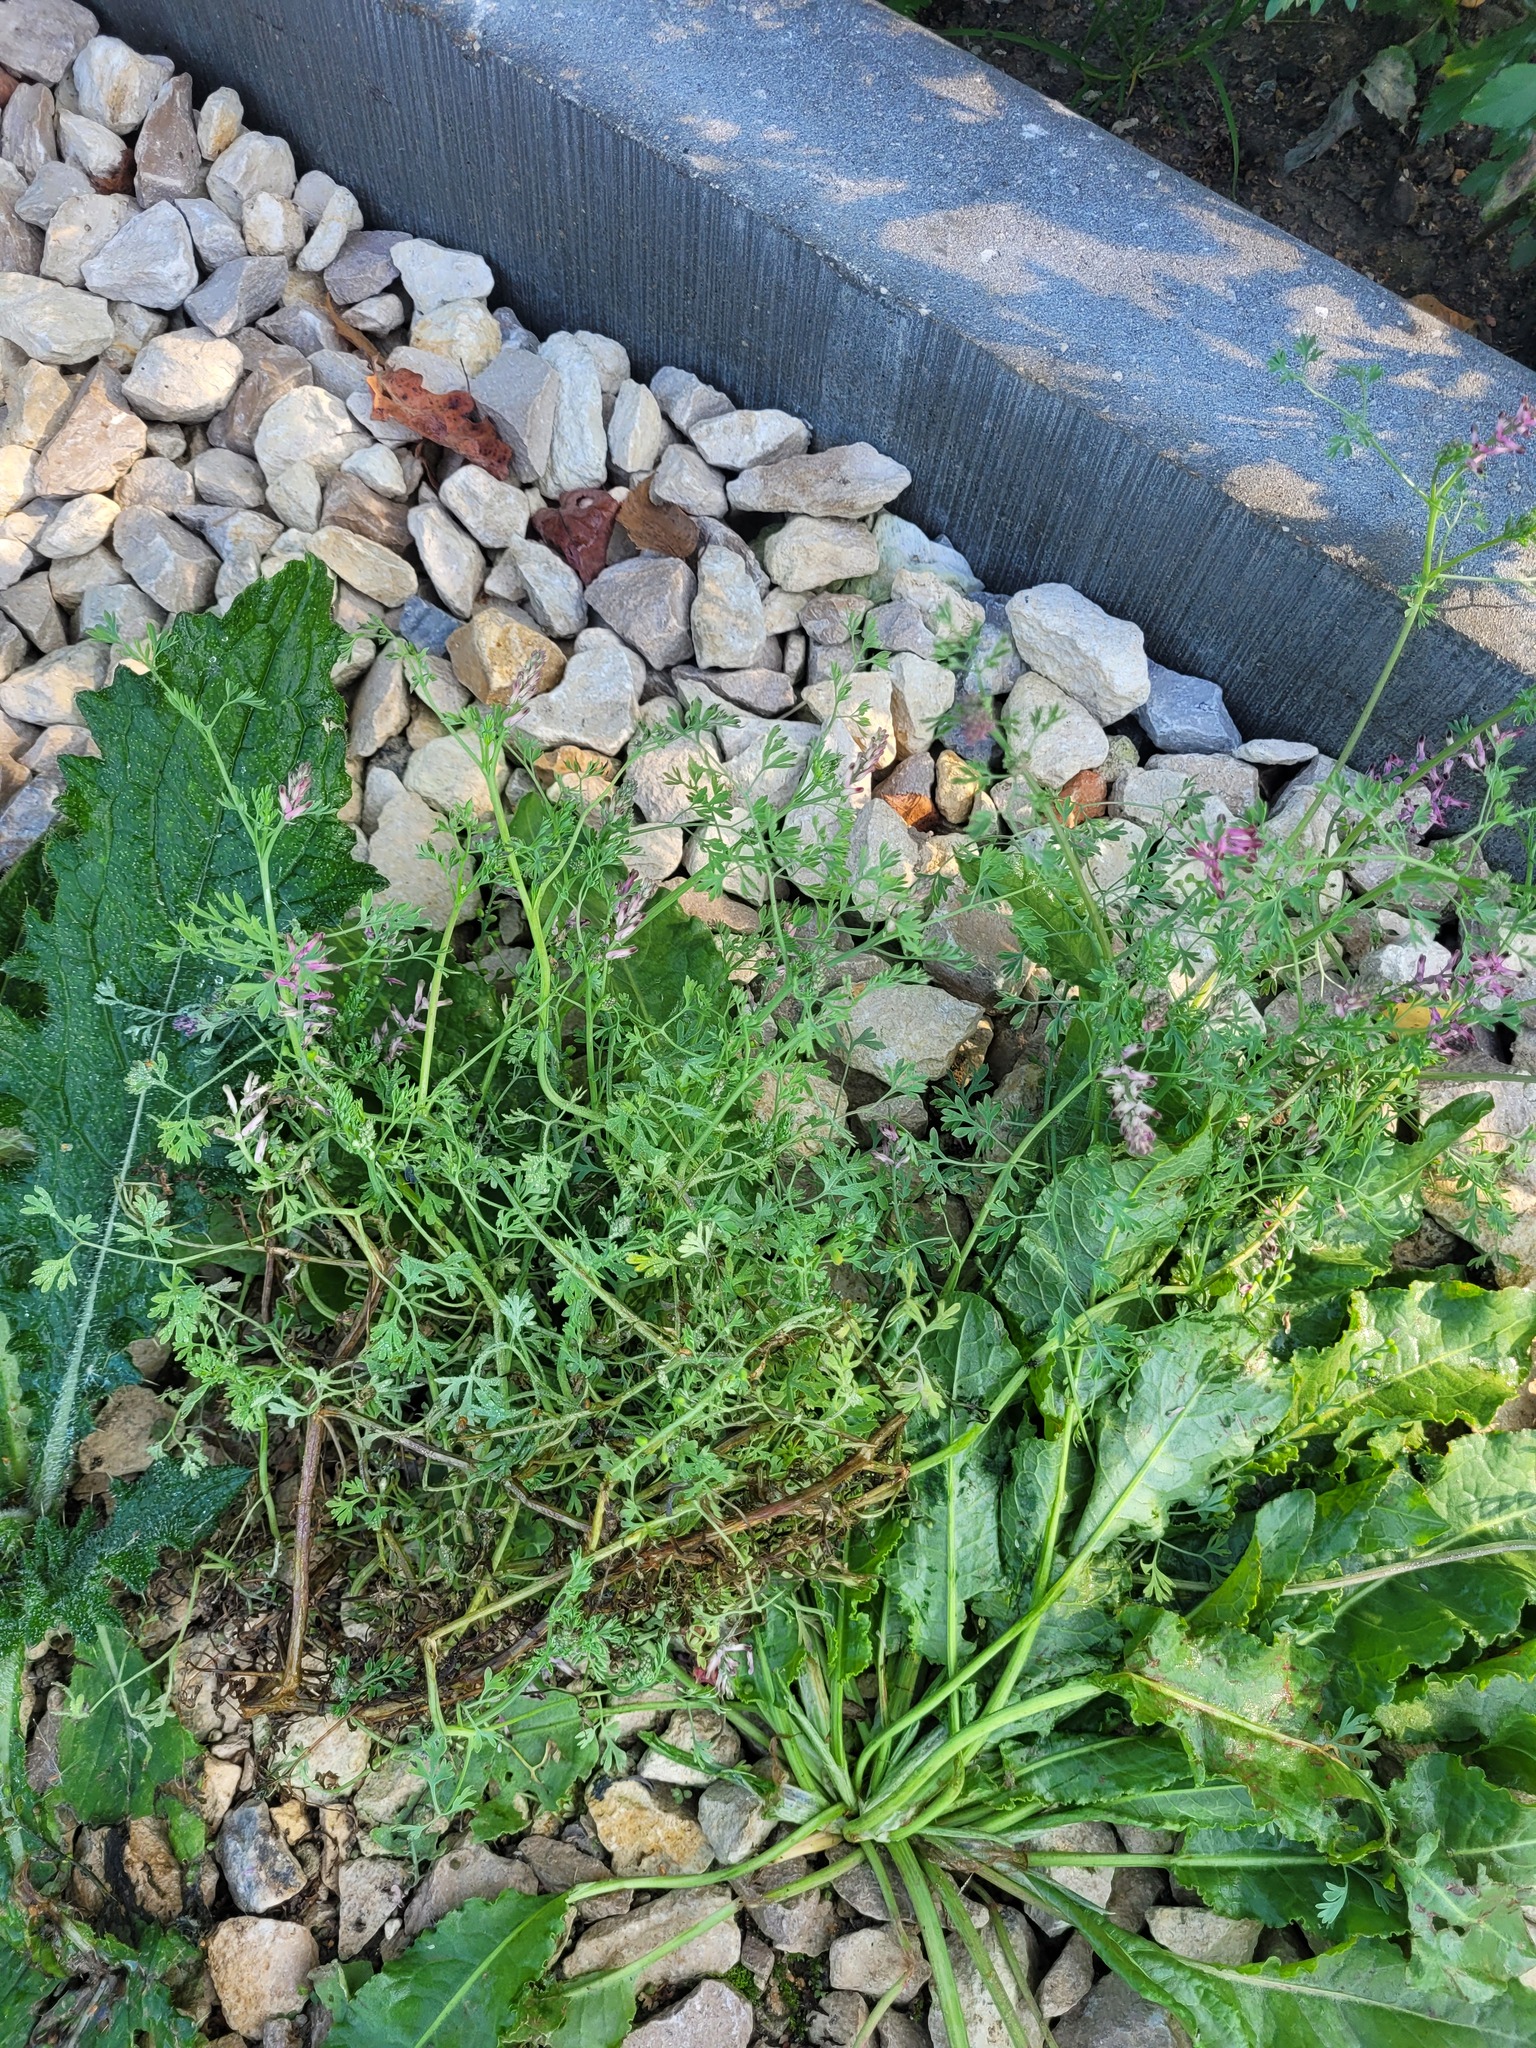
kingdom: Plantae
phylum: Tracheophyta
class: Magnoliopsida
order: Ranunculales
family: Papaveraceae
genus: Fumaria
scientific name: Fumaria officinalis
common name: Common fumitory
